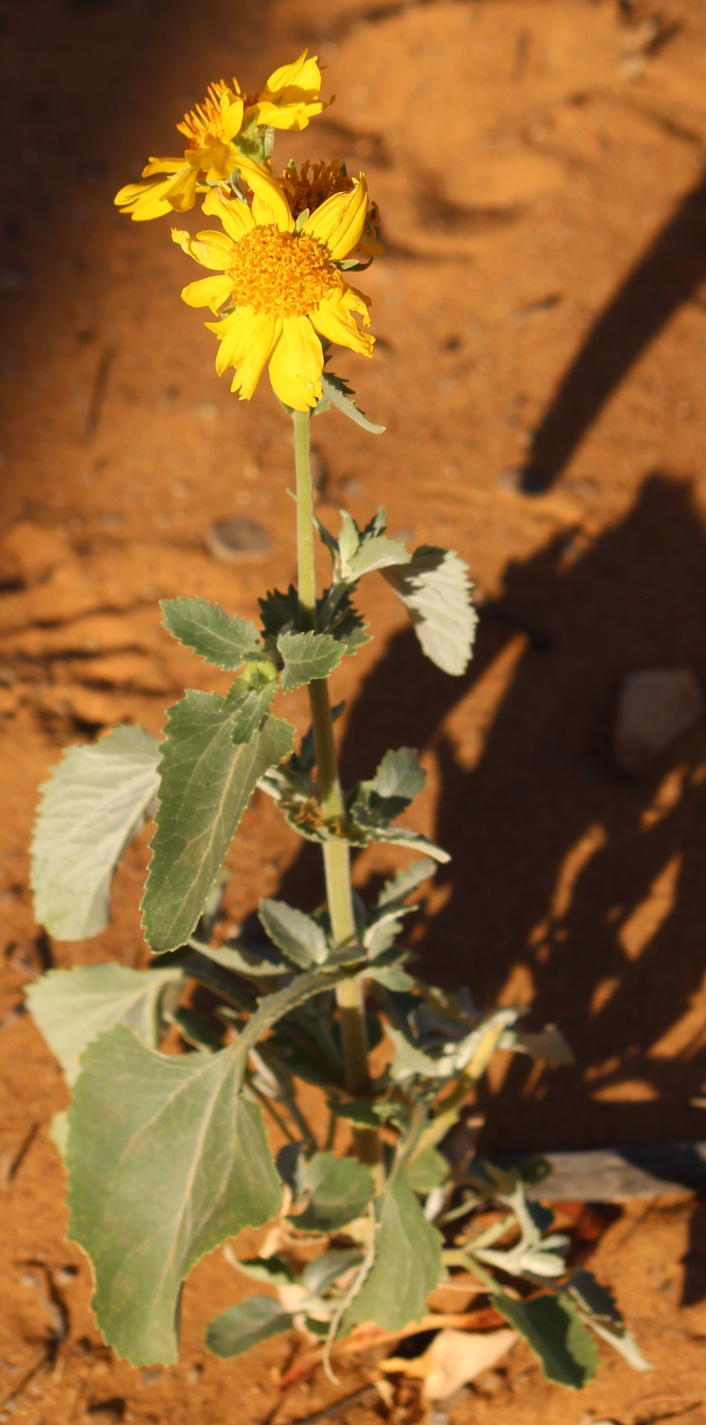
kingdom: Plantae
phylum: Tracheophyta
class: Magnoliopsida
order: Asterales
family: Asteraceae
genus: Verbesina
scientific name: Verbesina encelioides
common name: Golden crownbeard
